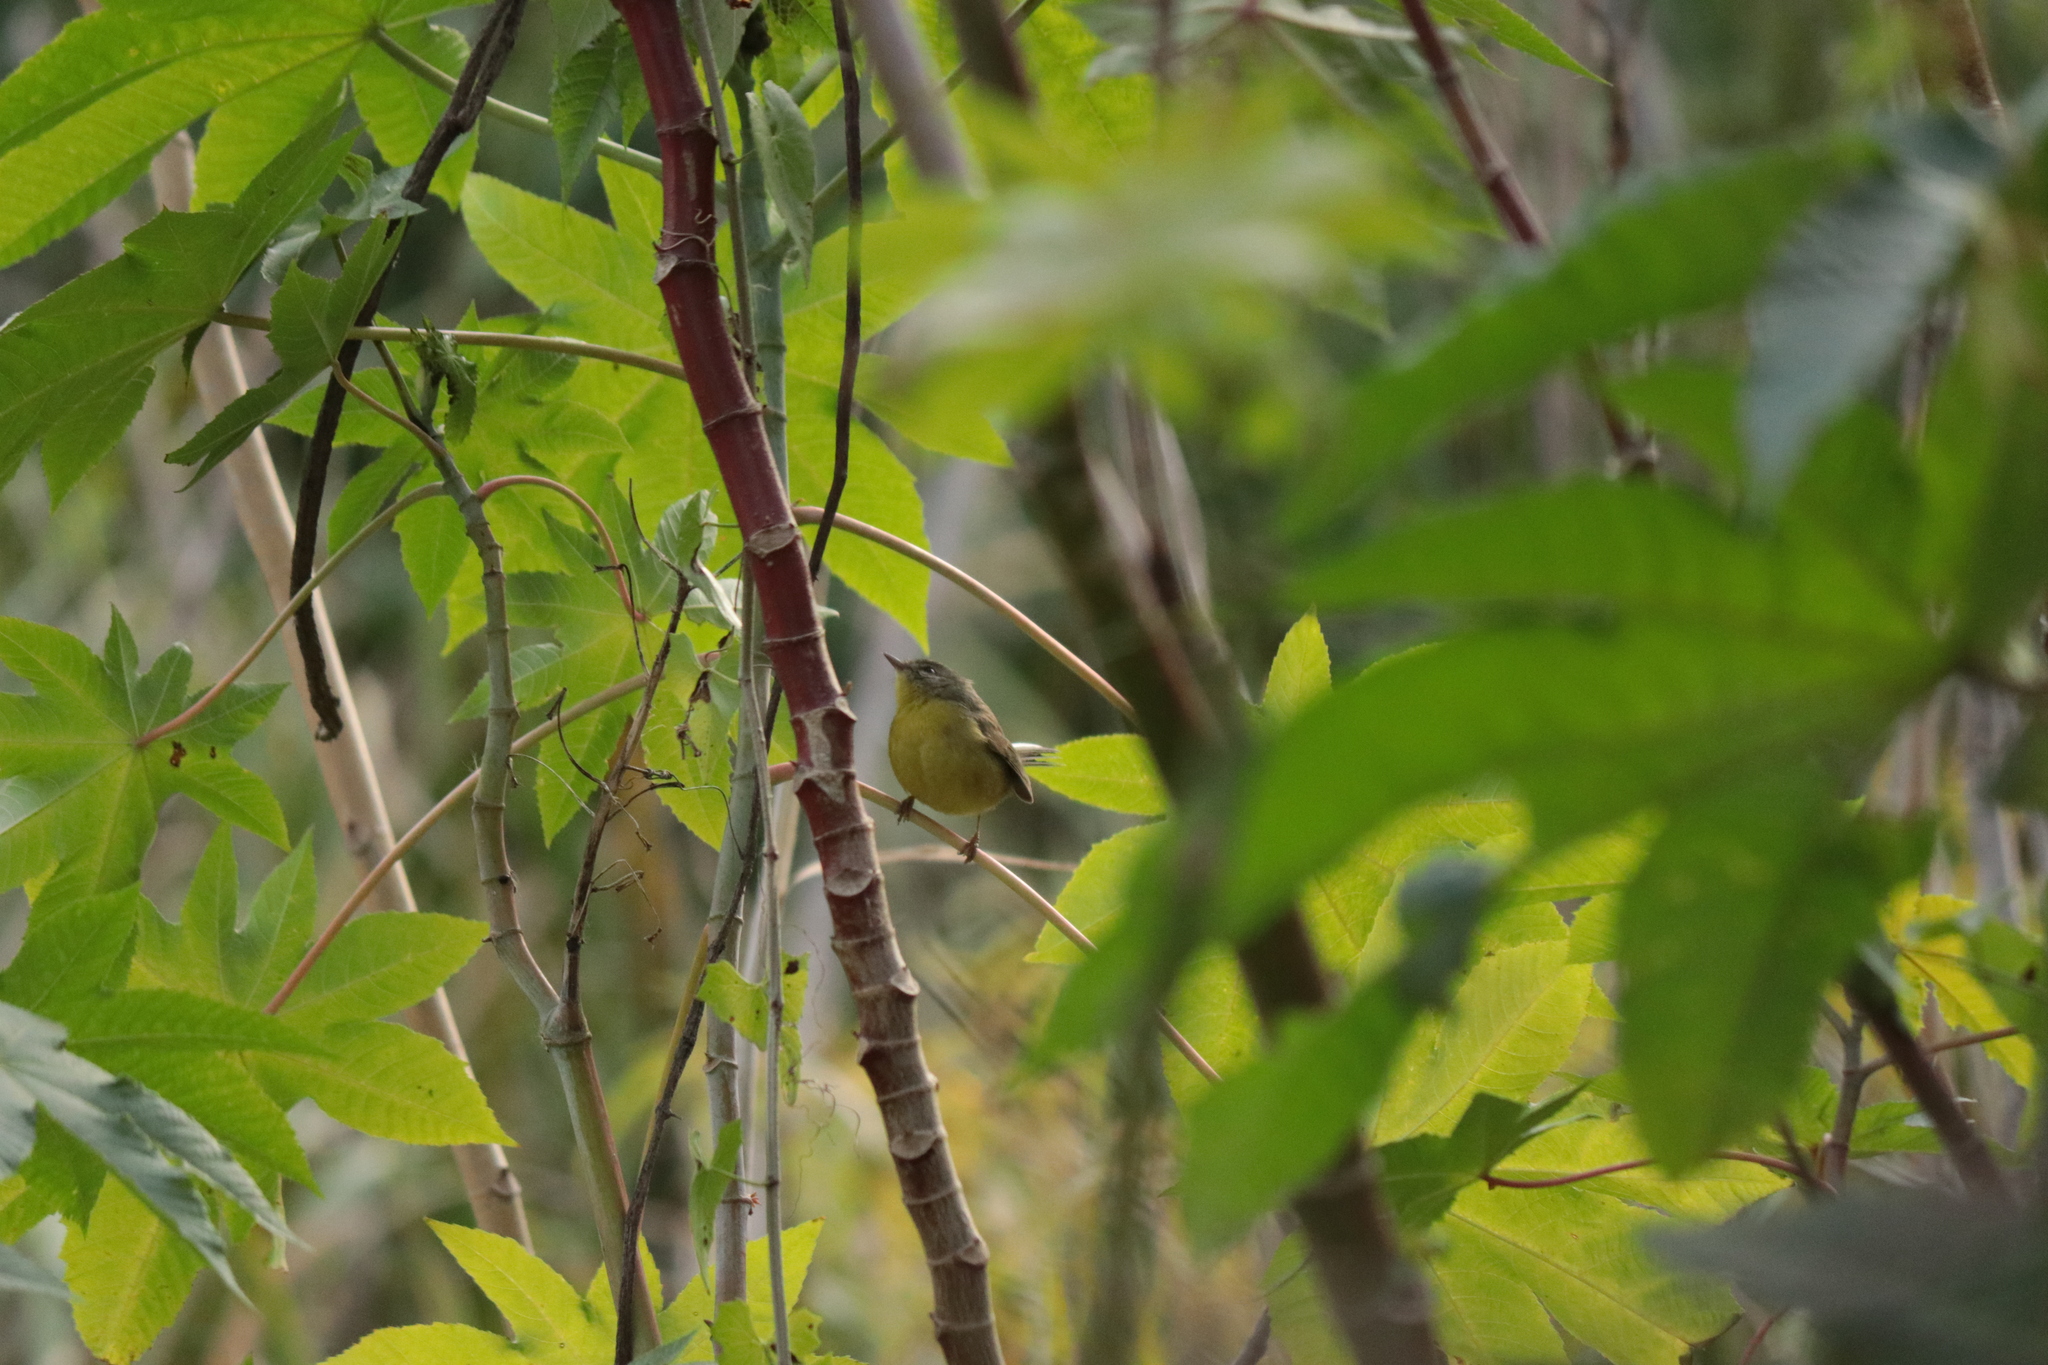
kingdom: Animalia
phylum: Chordata
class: Aves
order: Passeriformes
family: Parulidae
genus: Basileuterus
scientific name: Basileuterus culicivorus
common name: Golden-crowned warbler
